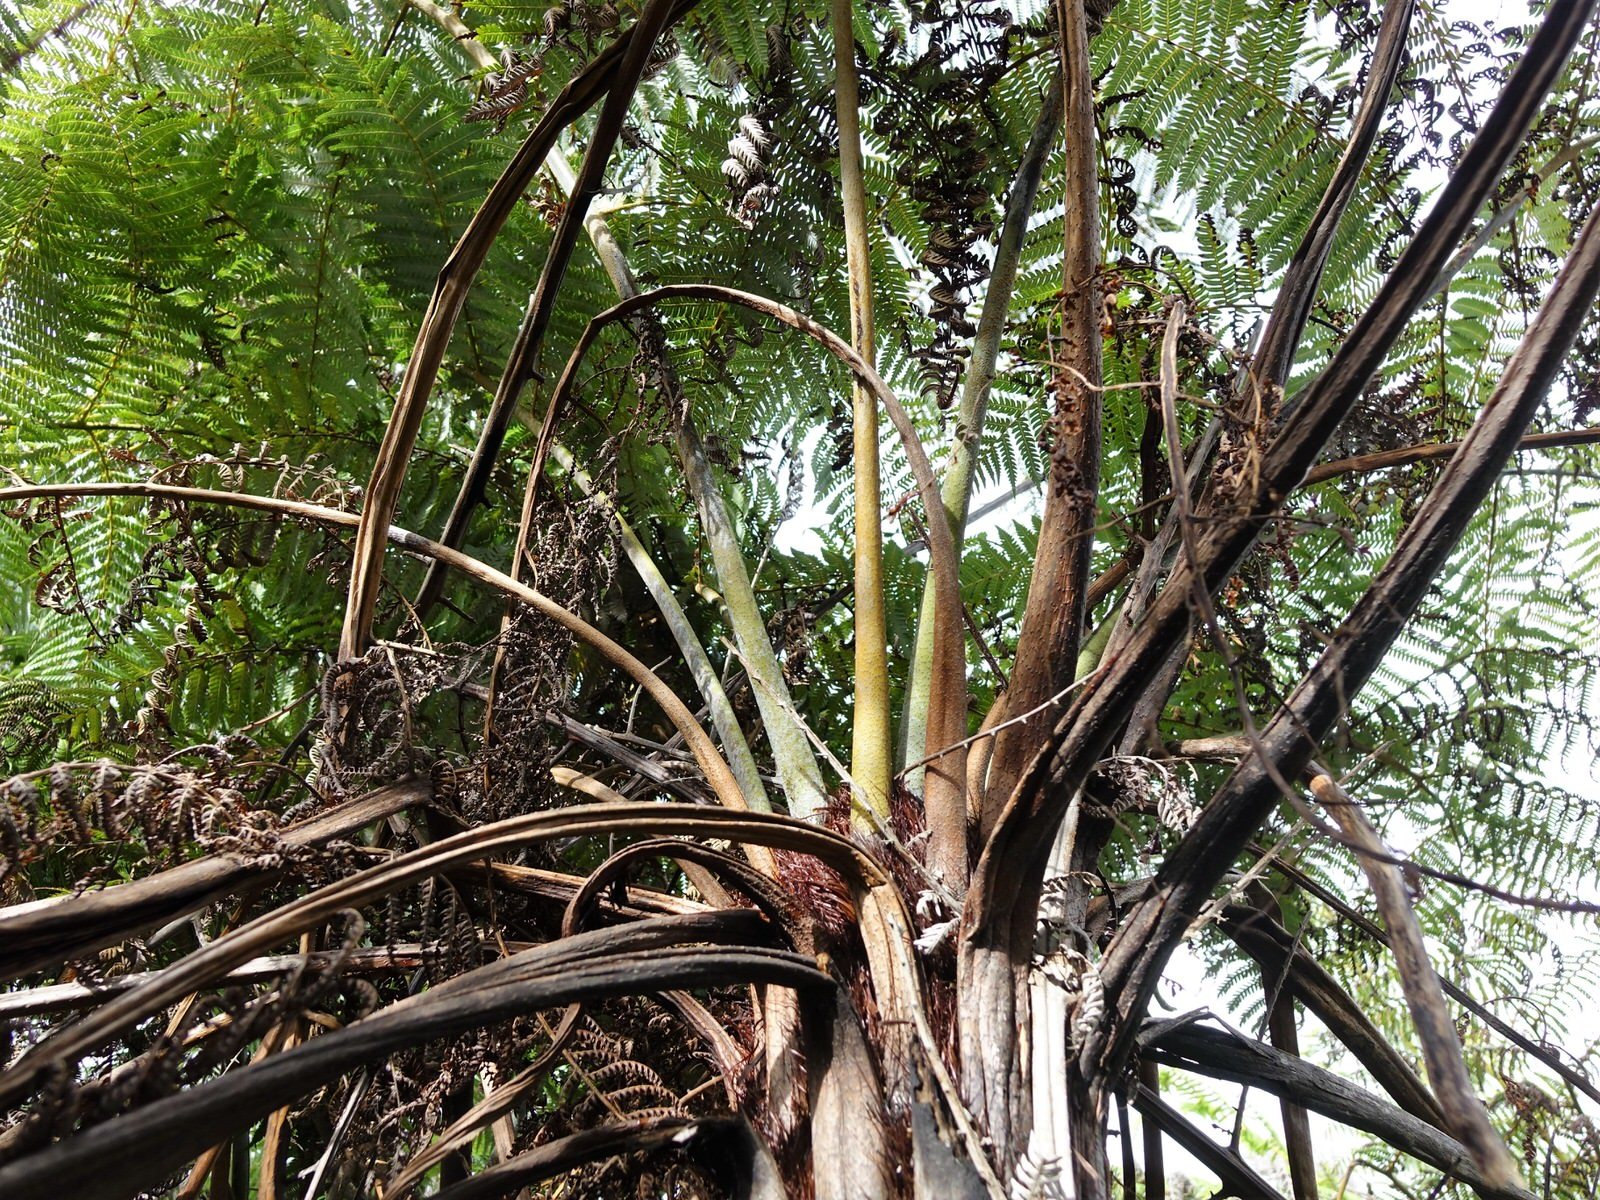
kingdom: Plantae
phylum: Tracheophyta
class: Polypodiopsida
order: Cyatheales
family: Cyatheaceae
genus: Alsophila
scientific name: Alsophila dealbata
